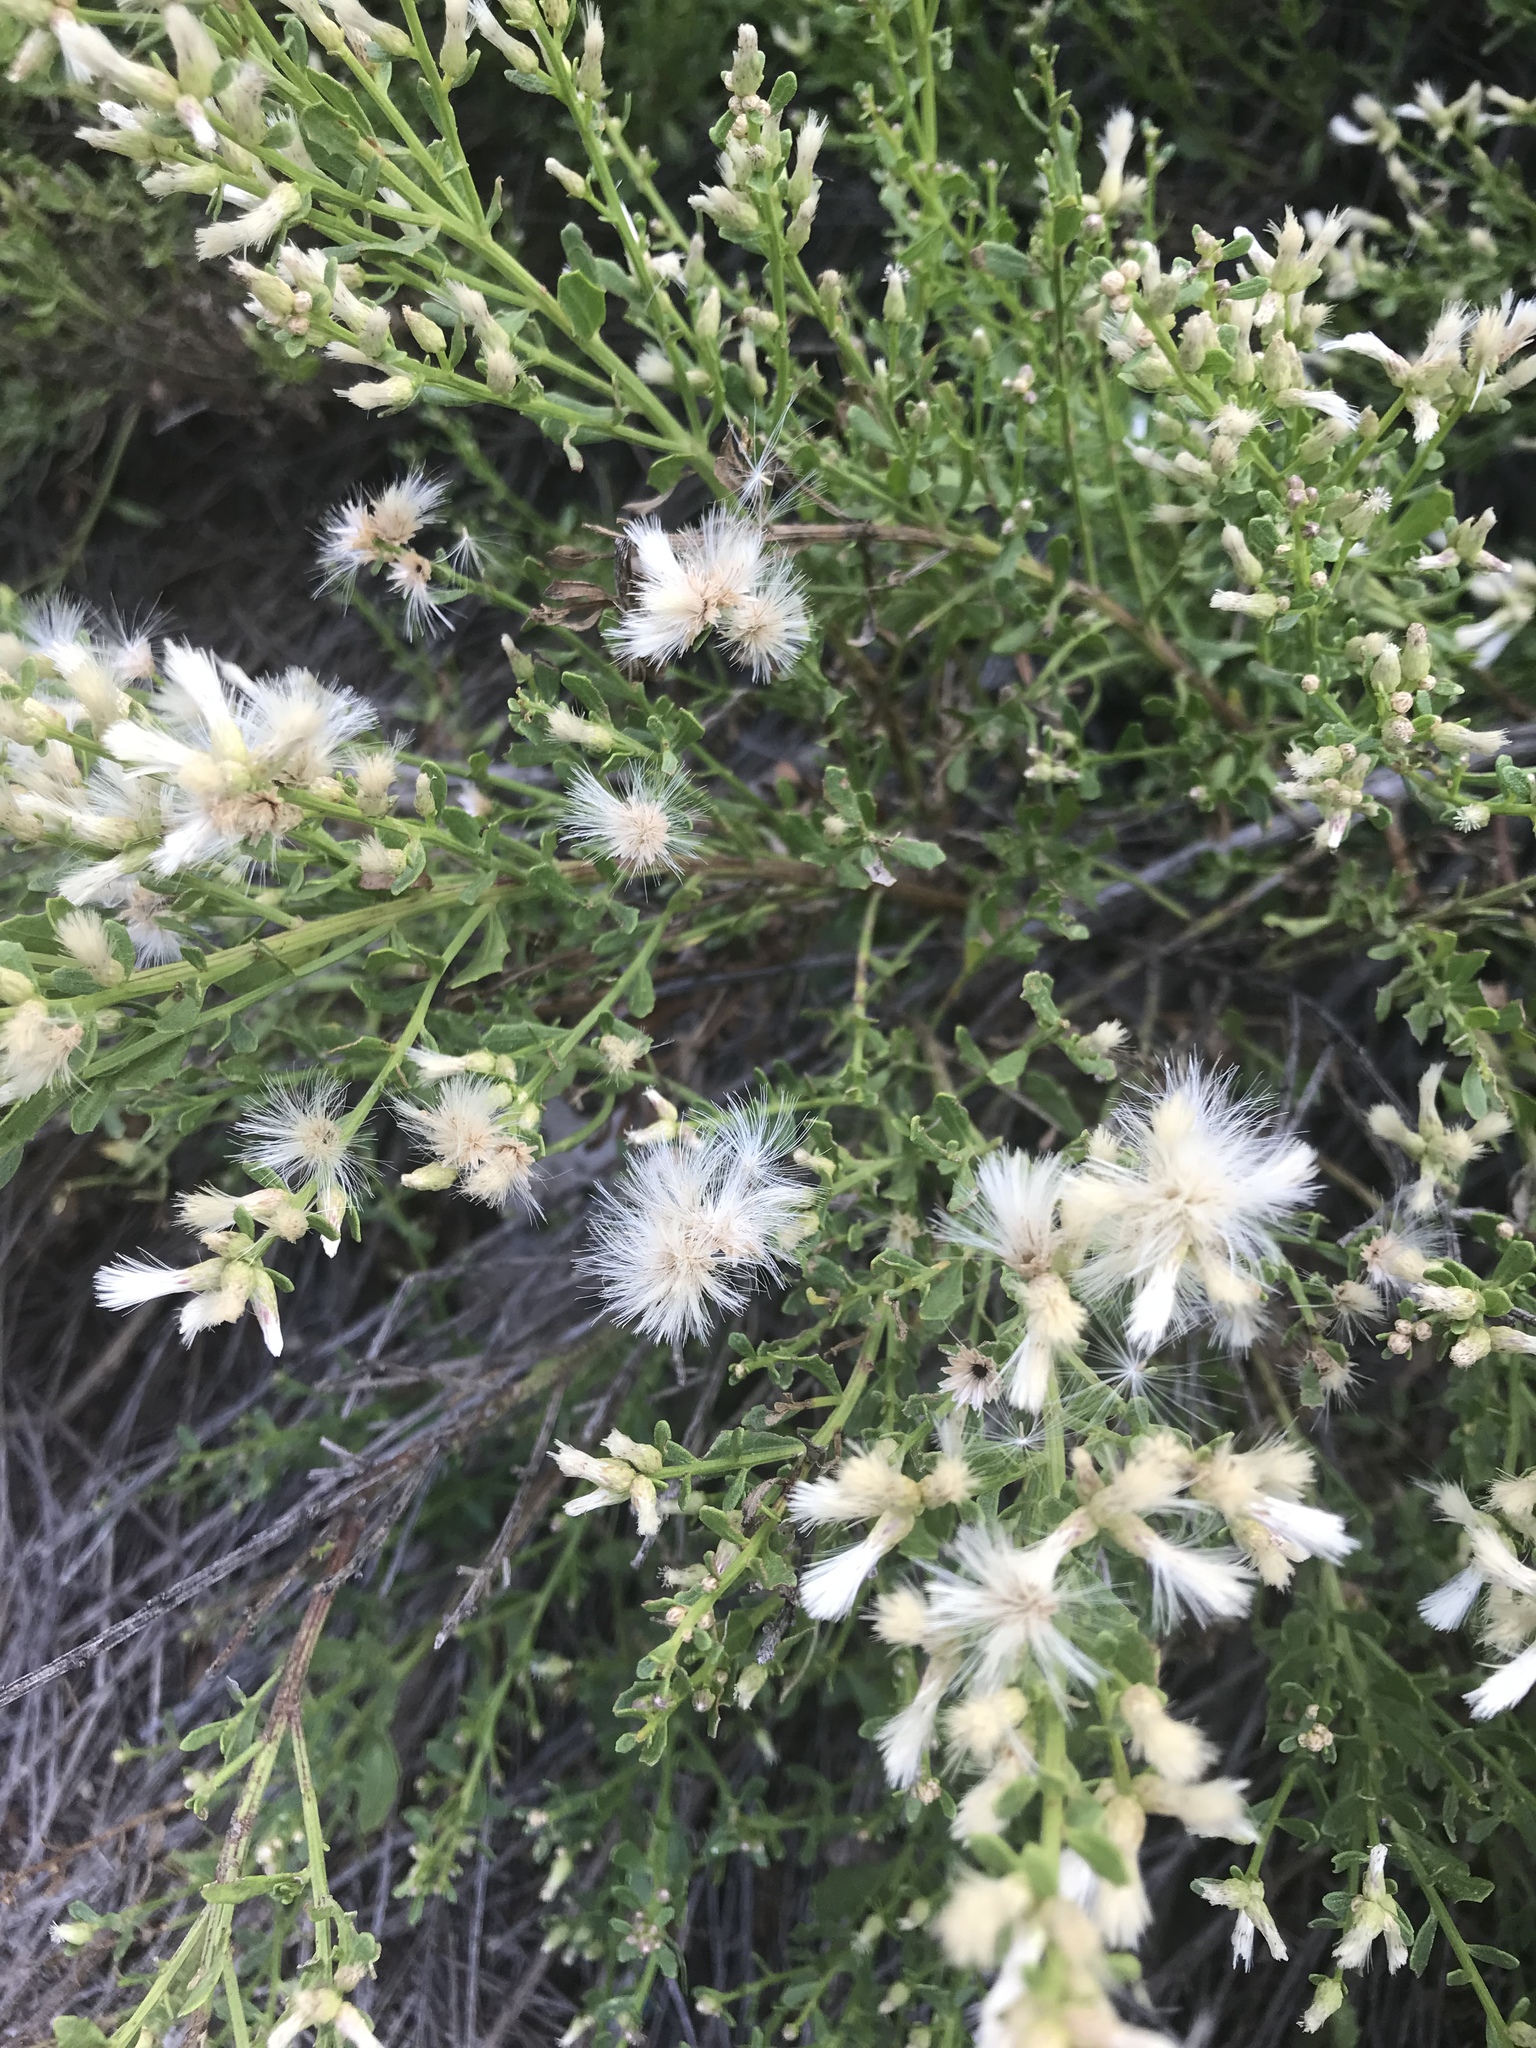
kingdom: Plantae
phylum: Tracheophyta
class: Magnoliopsida
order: Asterales
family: Asteraceae
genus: Baccharis
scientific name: Baccharis pilularis
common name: Coyotebrush
